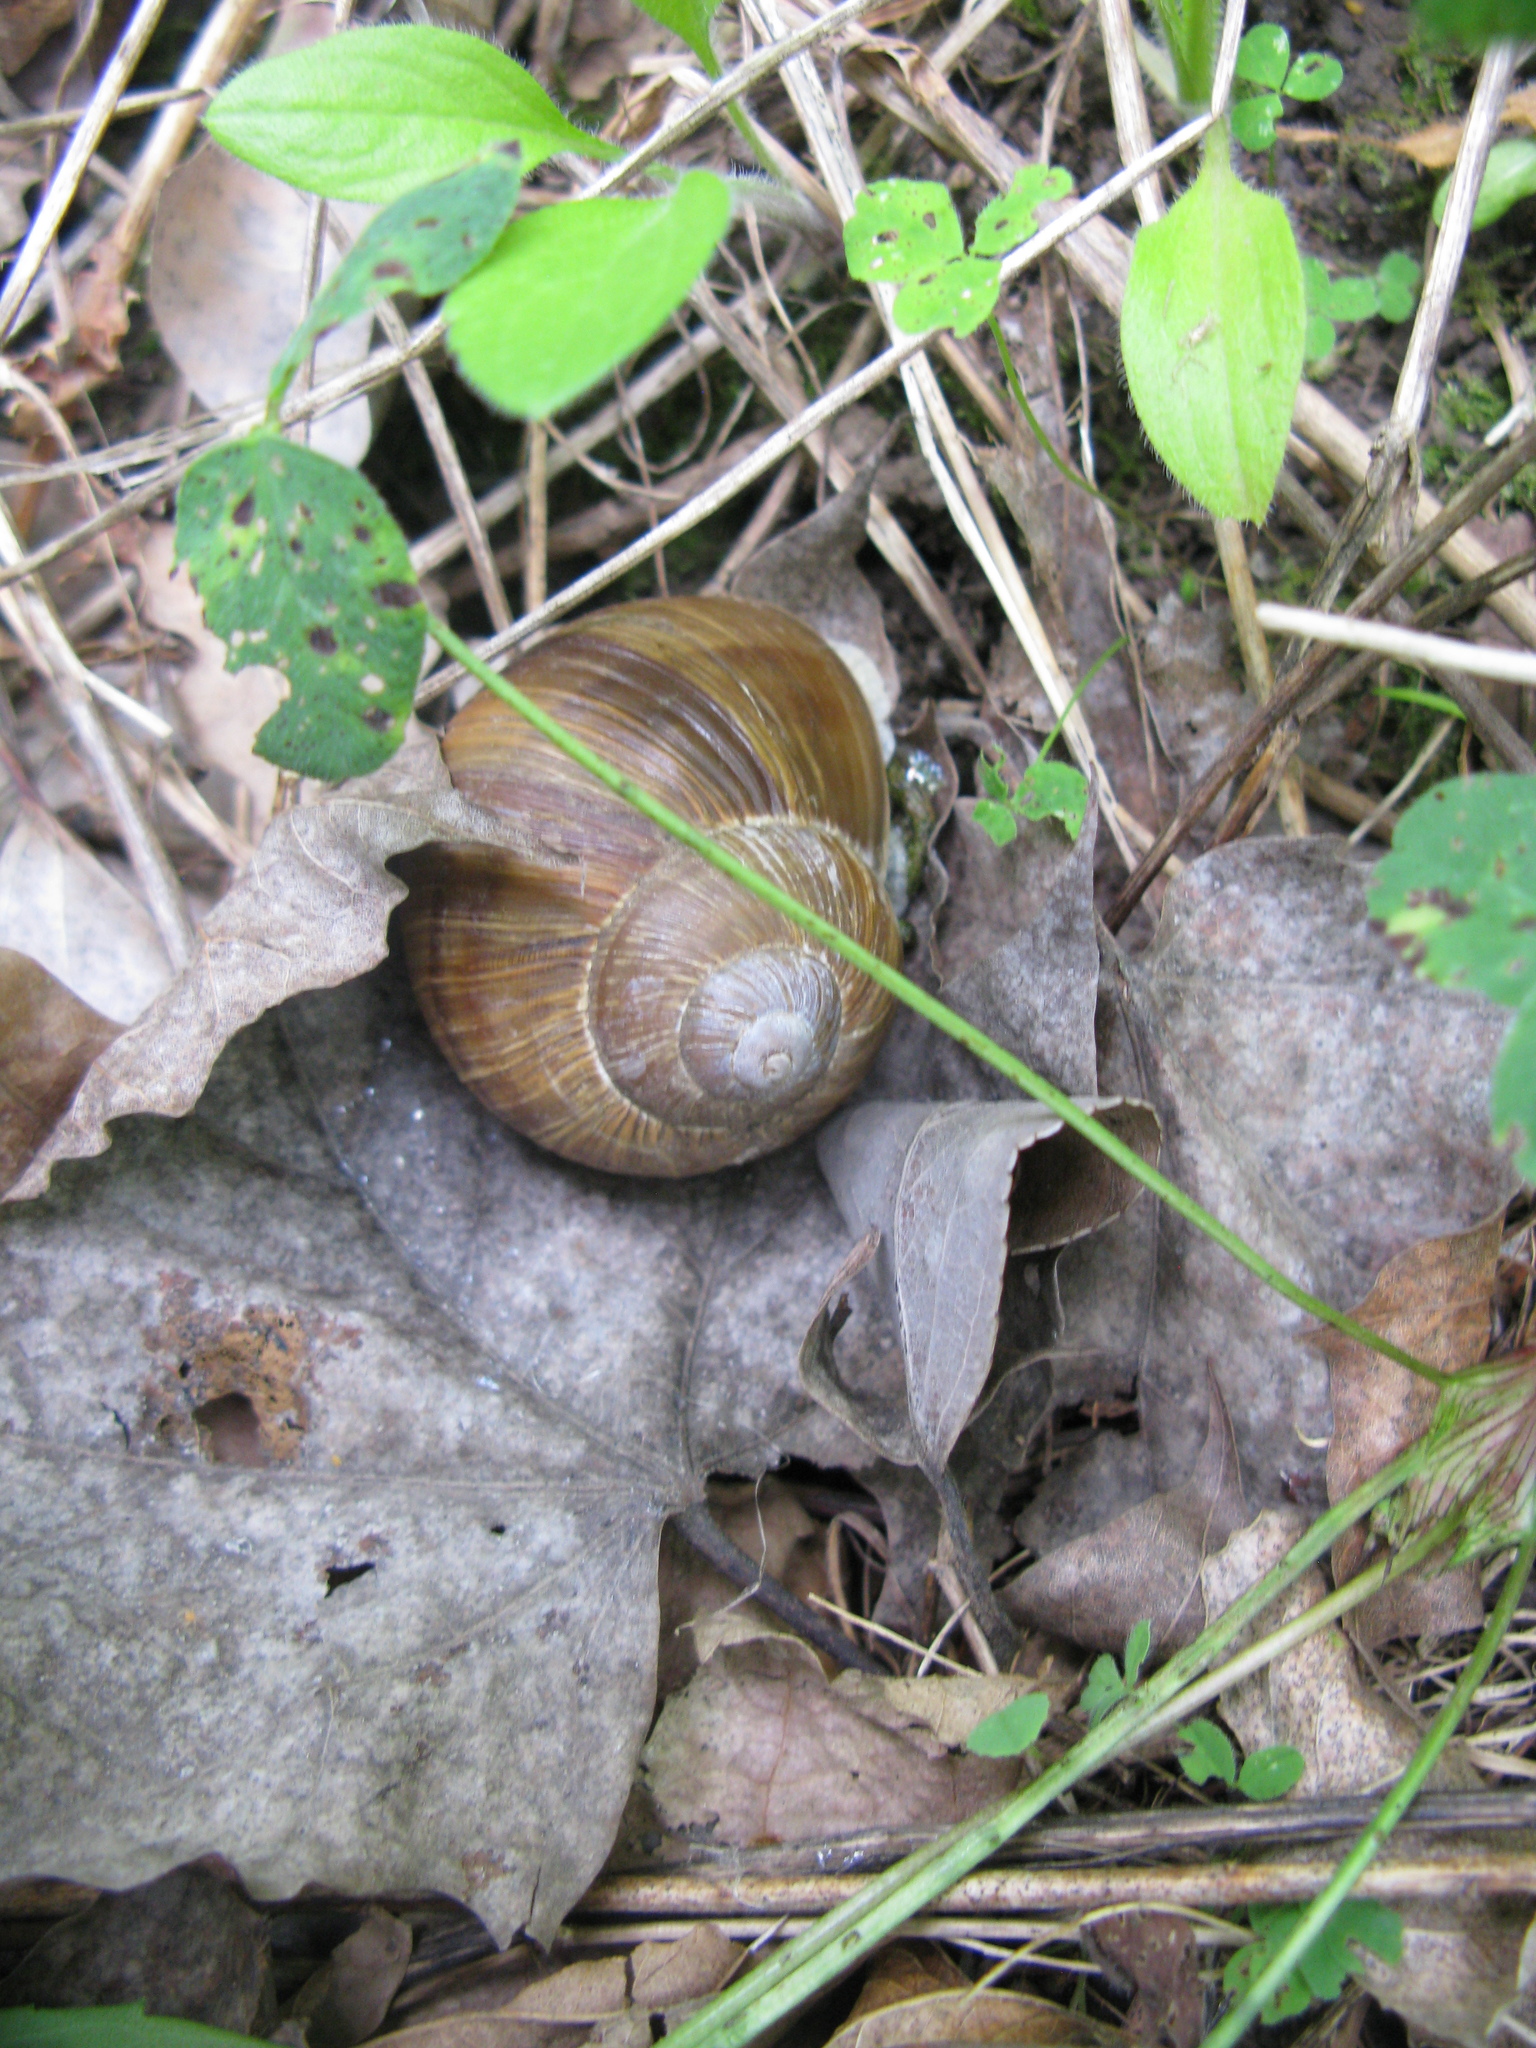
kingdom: Animalia
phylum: Mollusca
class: Gastropoda
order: Stylommatophora
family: Helicidae
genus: Helix
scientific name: Helix pomatia
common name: Roman snail
